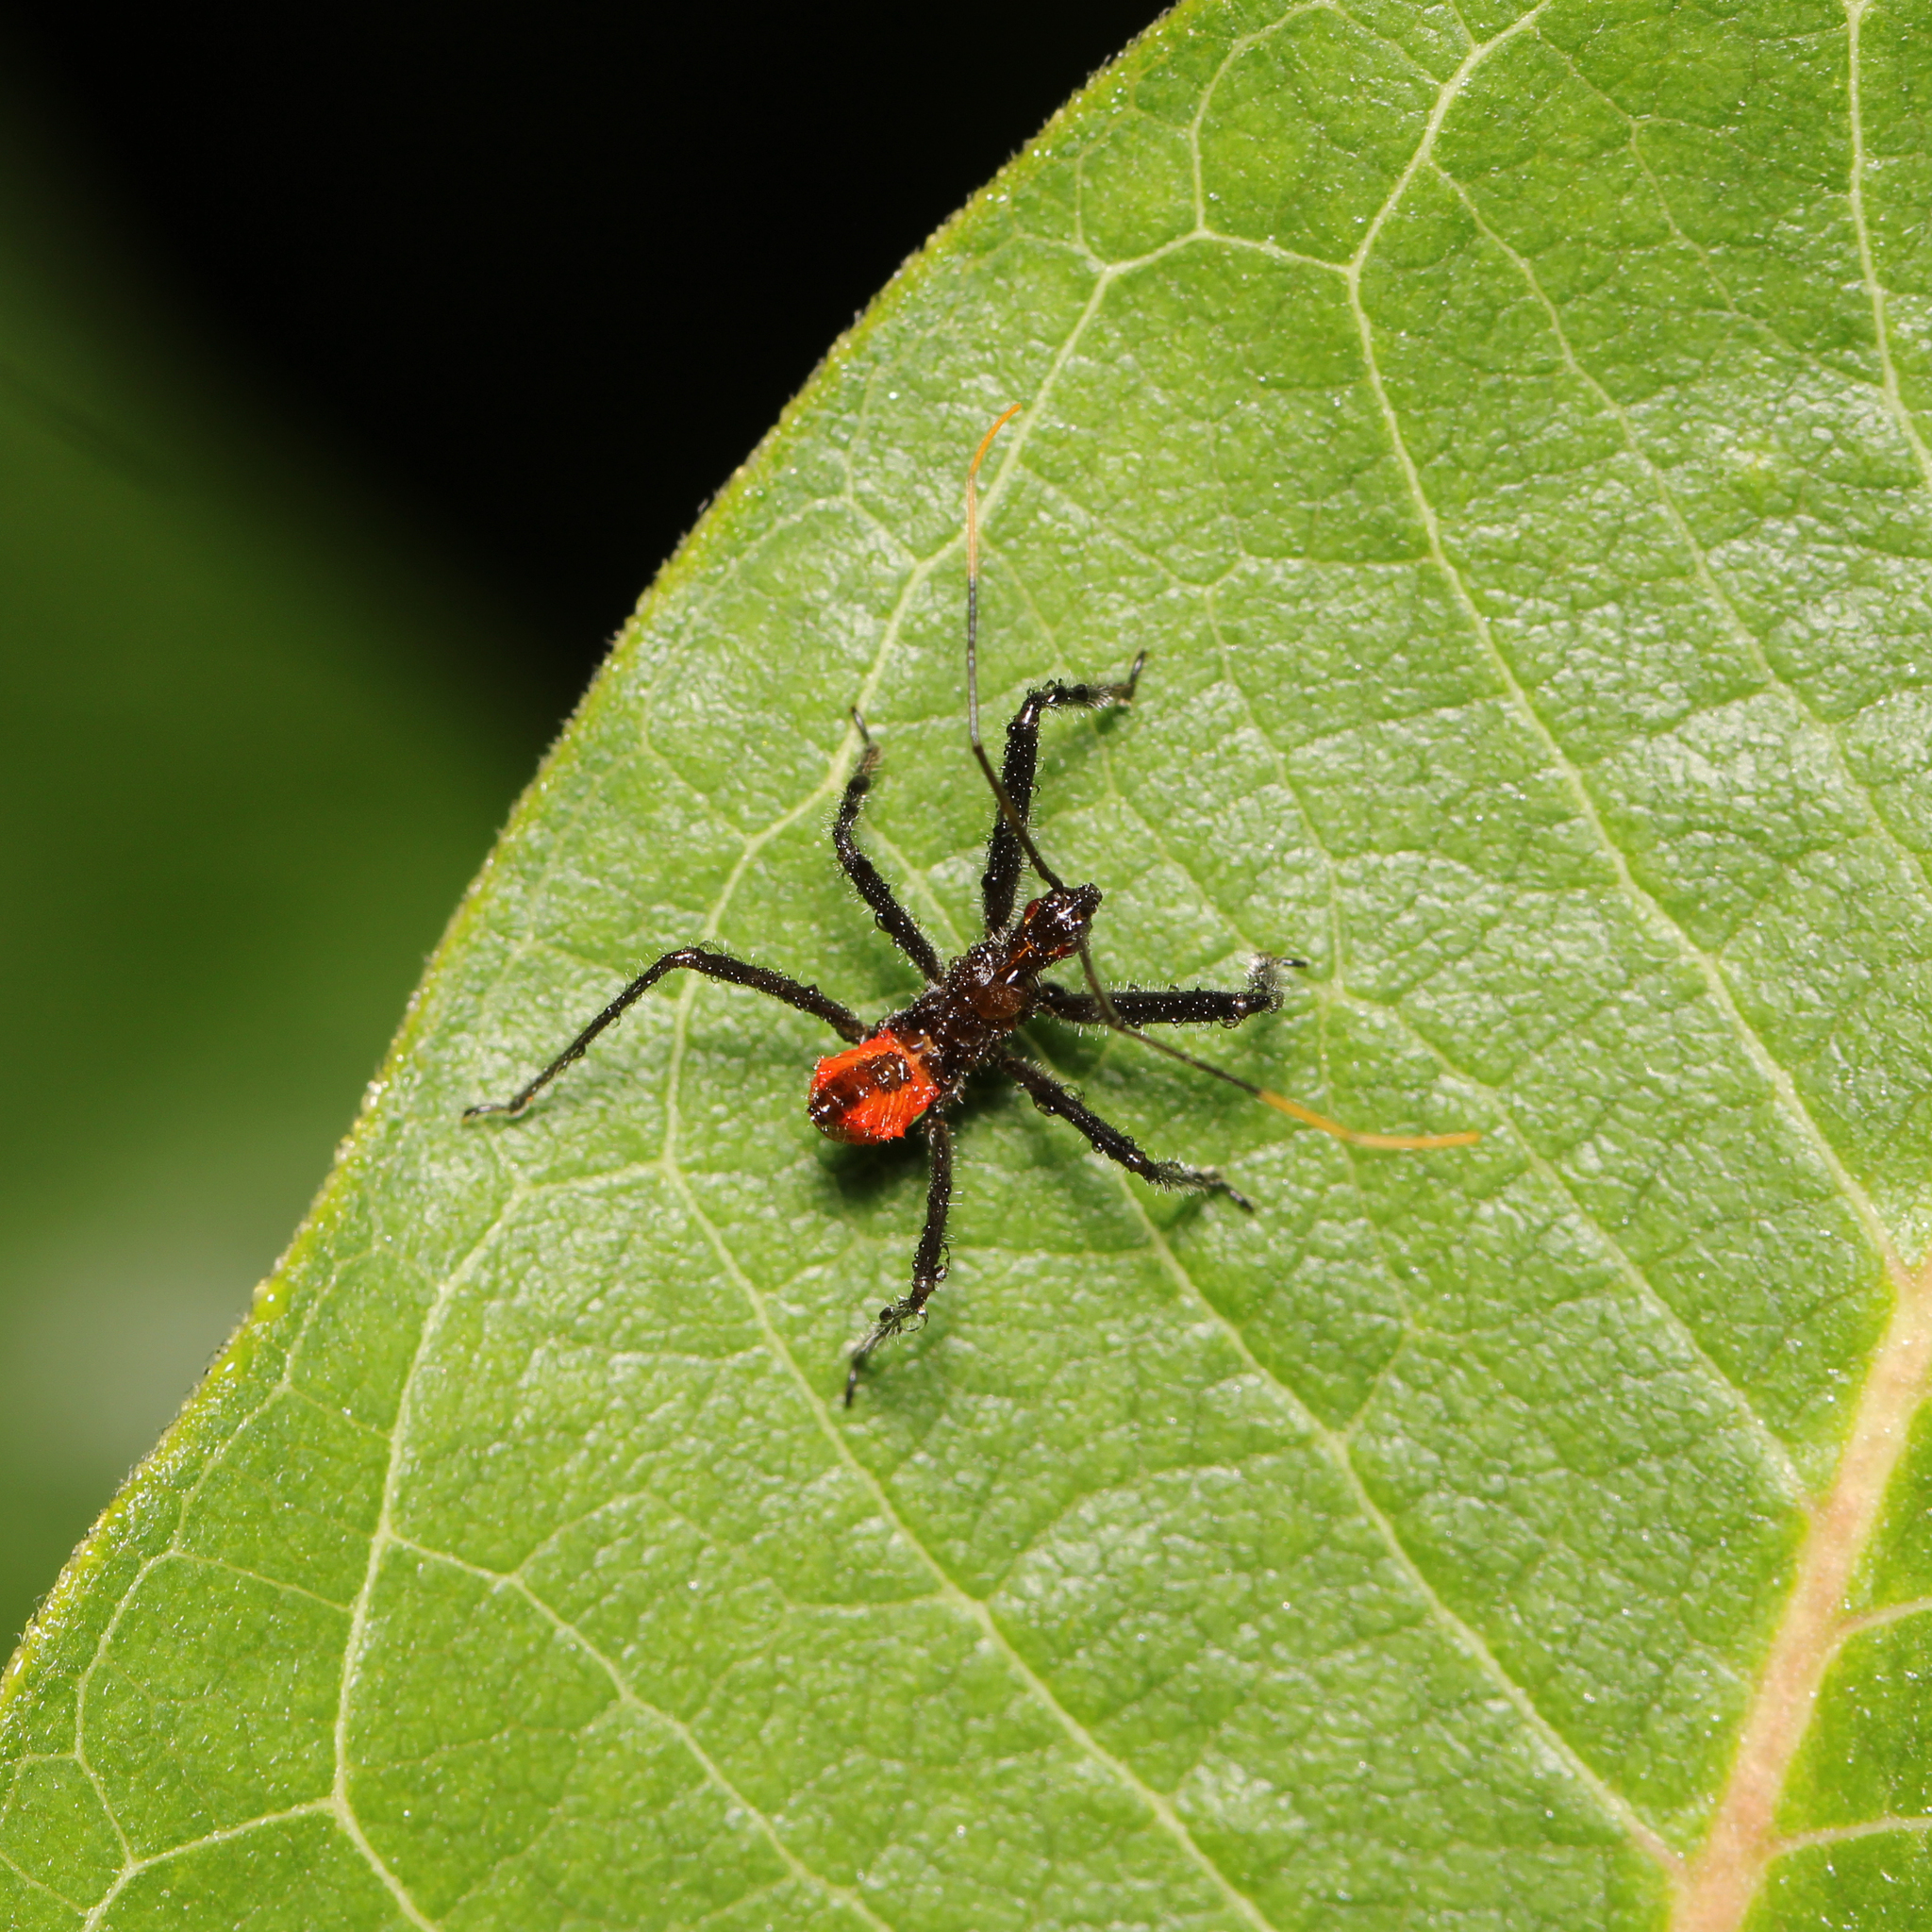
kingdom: Animalia
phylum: Arthropoda
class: Insecta
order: Hemiptera
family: Reduviidae
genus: Arilus
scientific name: Arilus cristatus
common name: North american wheel bug
